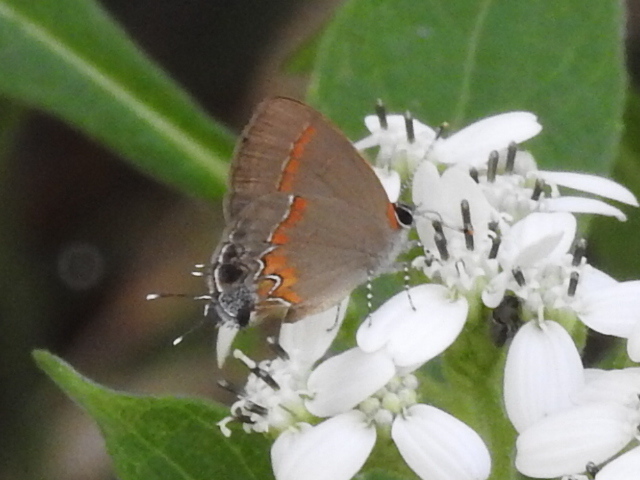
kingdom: Animalia
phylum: Arthropoda
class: Insecta
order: Lepidoptera
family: Lycaenidae
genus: Calycopis
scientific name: Calycopis cecrops
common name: Red-banded hairstreak
